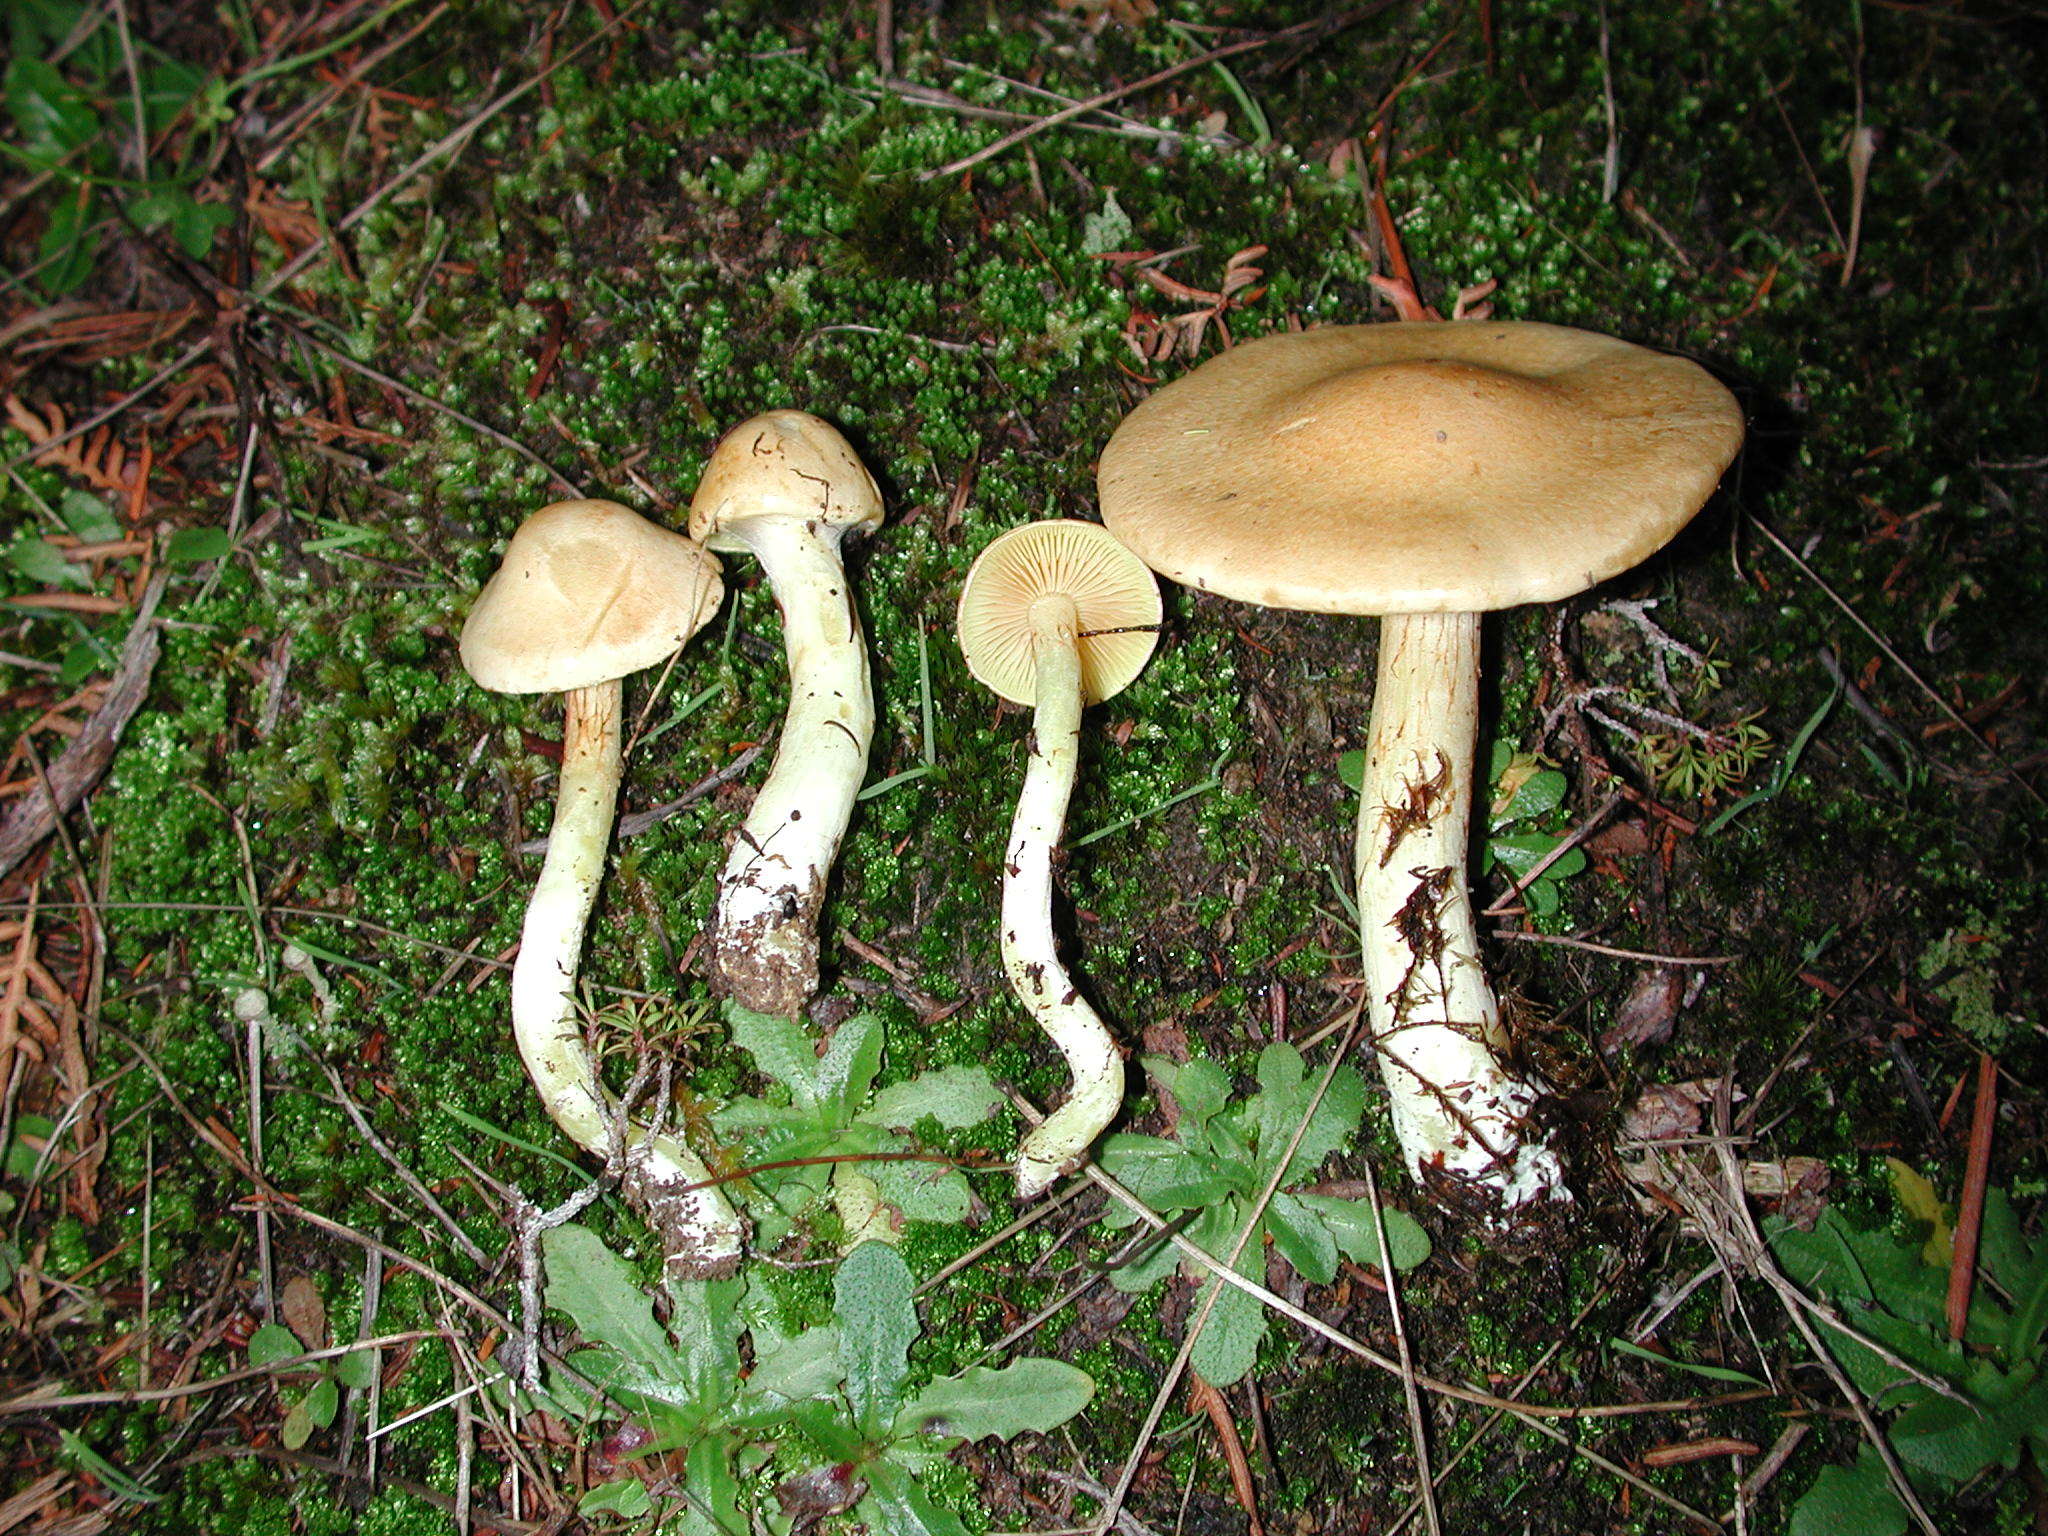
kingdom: Fungi
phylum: Basidiomycota
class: Agaricomycetes
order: Agaricales
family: Cortinariaceae
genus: Phlegmacium
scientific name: Phlegmacium memoria-annae
